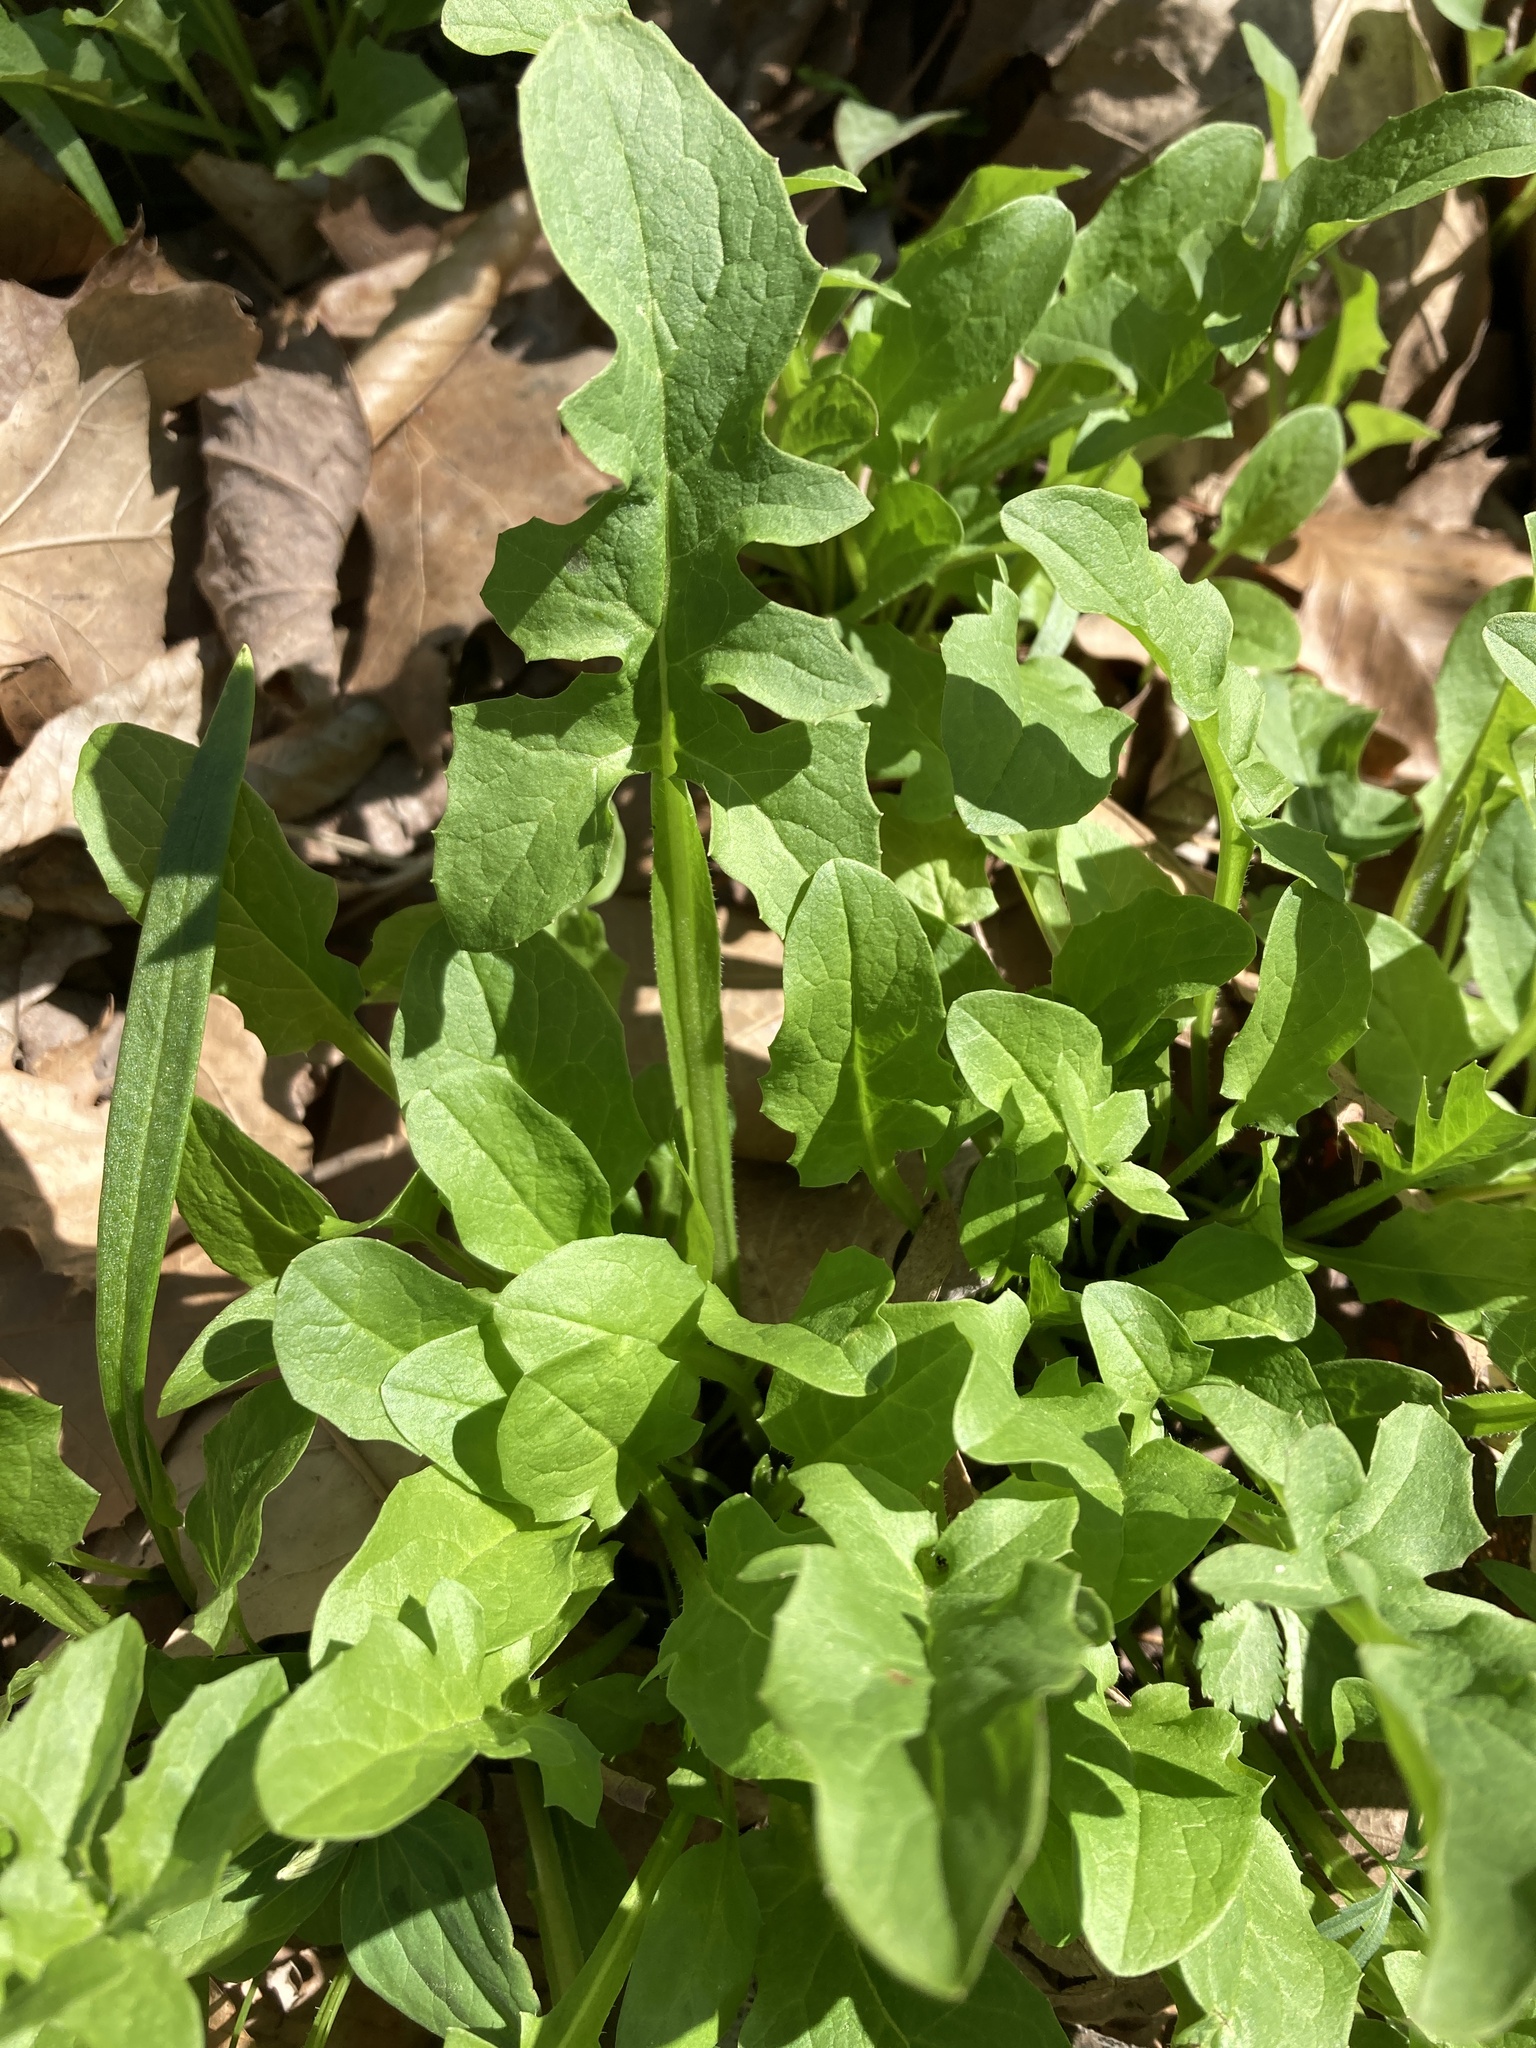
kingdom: Plantae
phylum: Tracheophyta
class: Magnoliopsida
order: Asterales
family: Asteraceae
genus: Nabalus
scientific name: Nabalus crepidineus
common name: Nodding rattlesnakeroot
